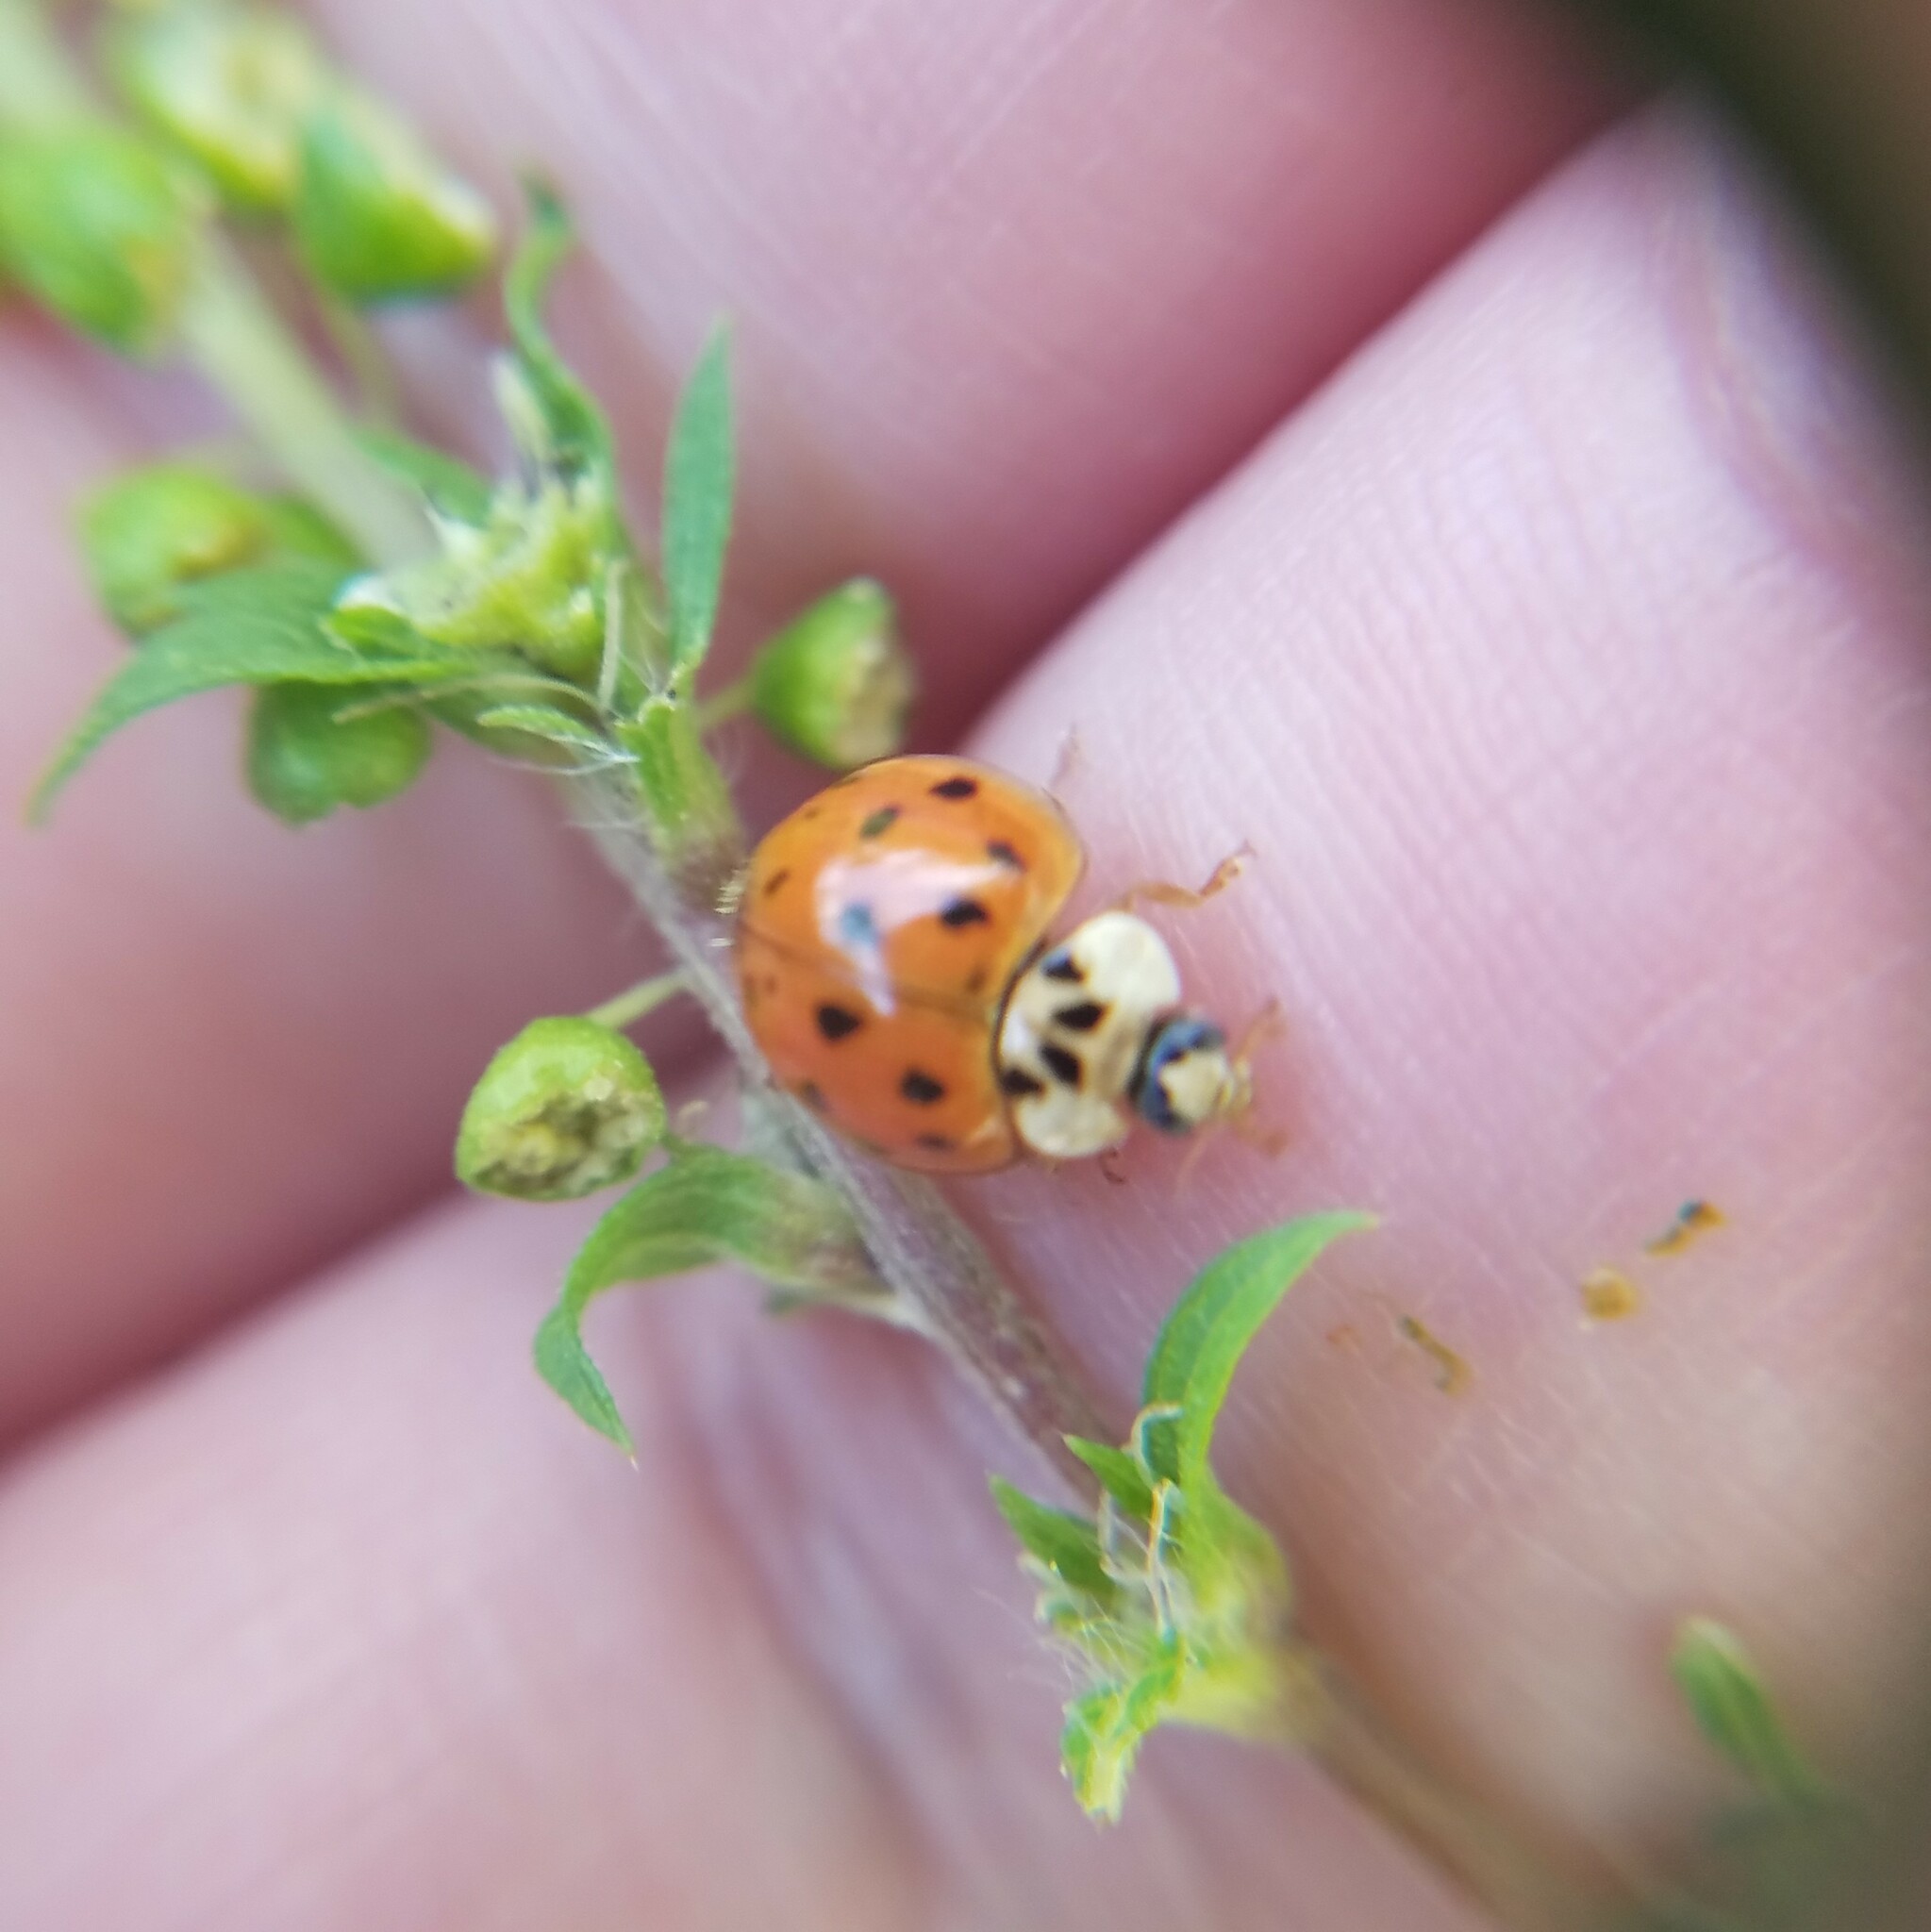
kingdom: Animalia
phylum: Arthropoda
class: Insecta
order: Coleoptera
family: Coccinellidae
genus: Harmonia
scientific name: Harmonia axyridis
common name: Harlequin ladybird
